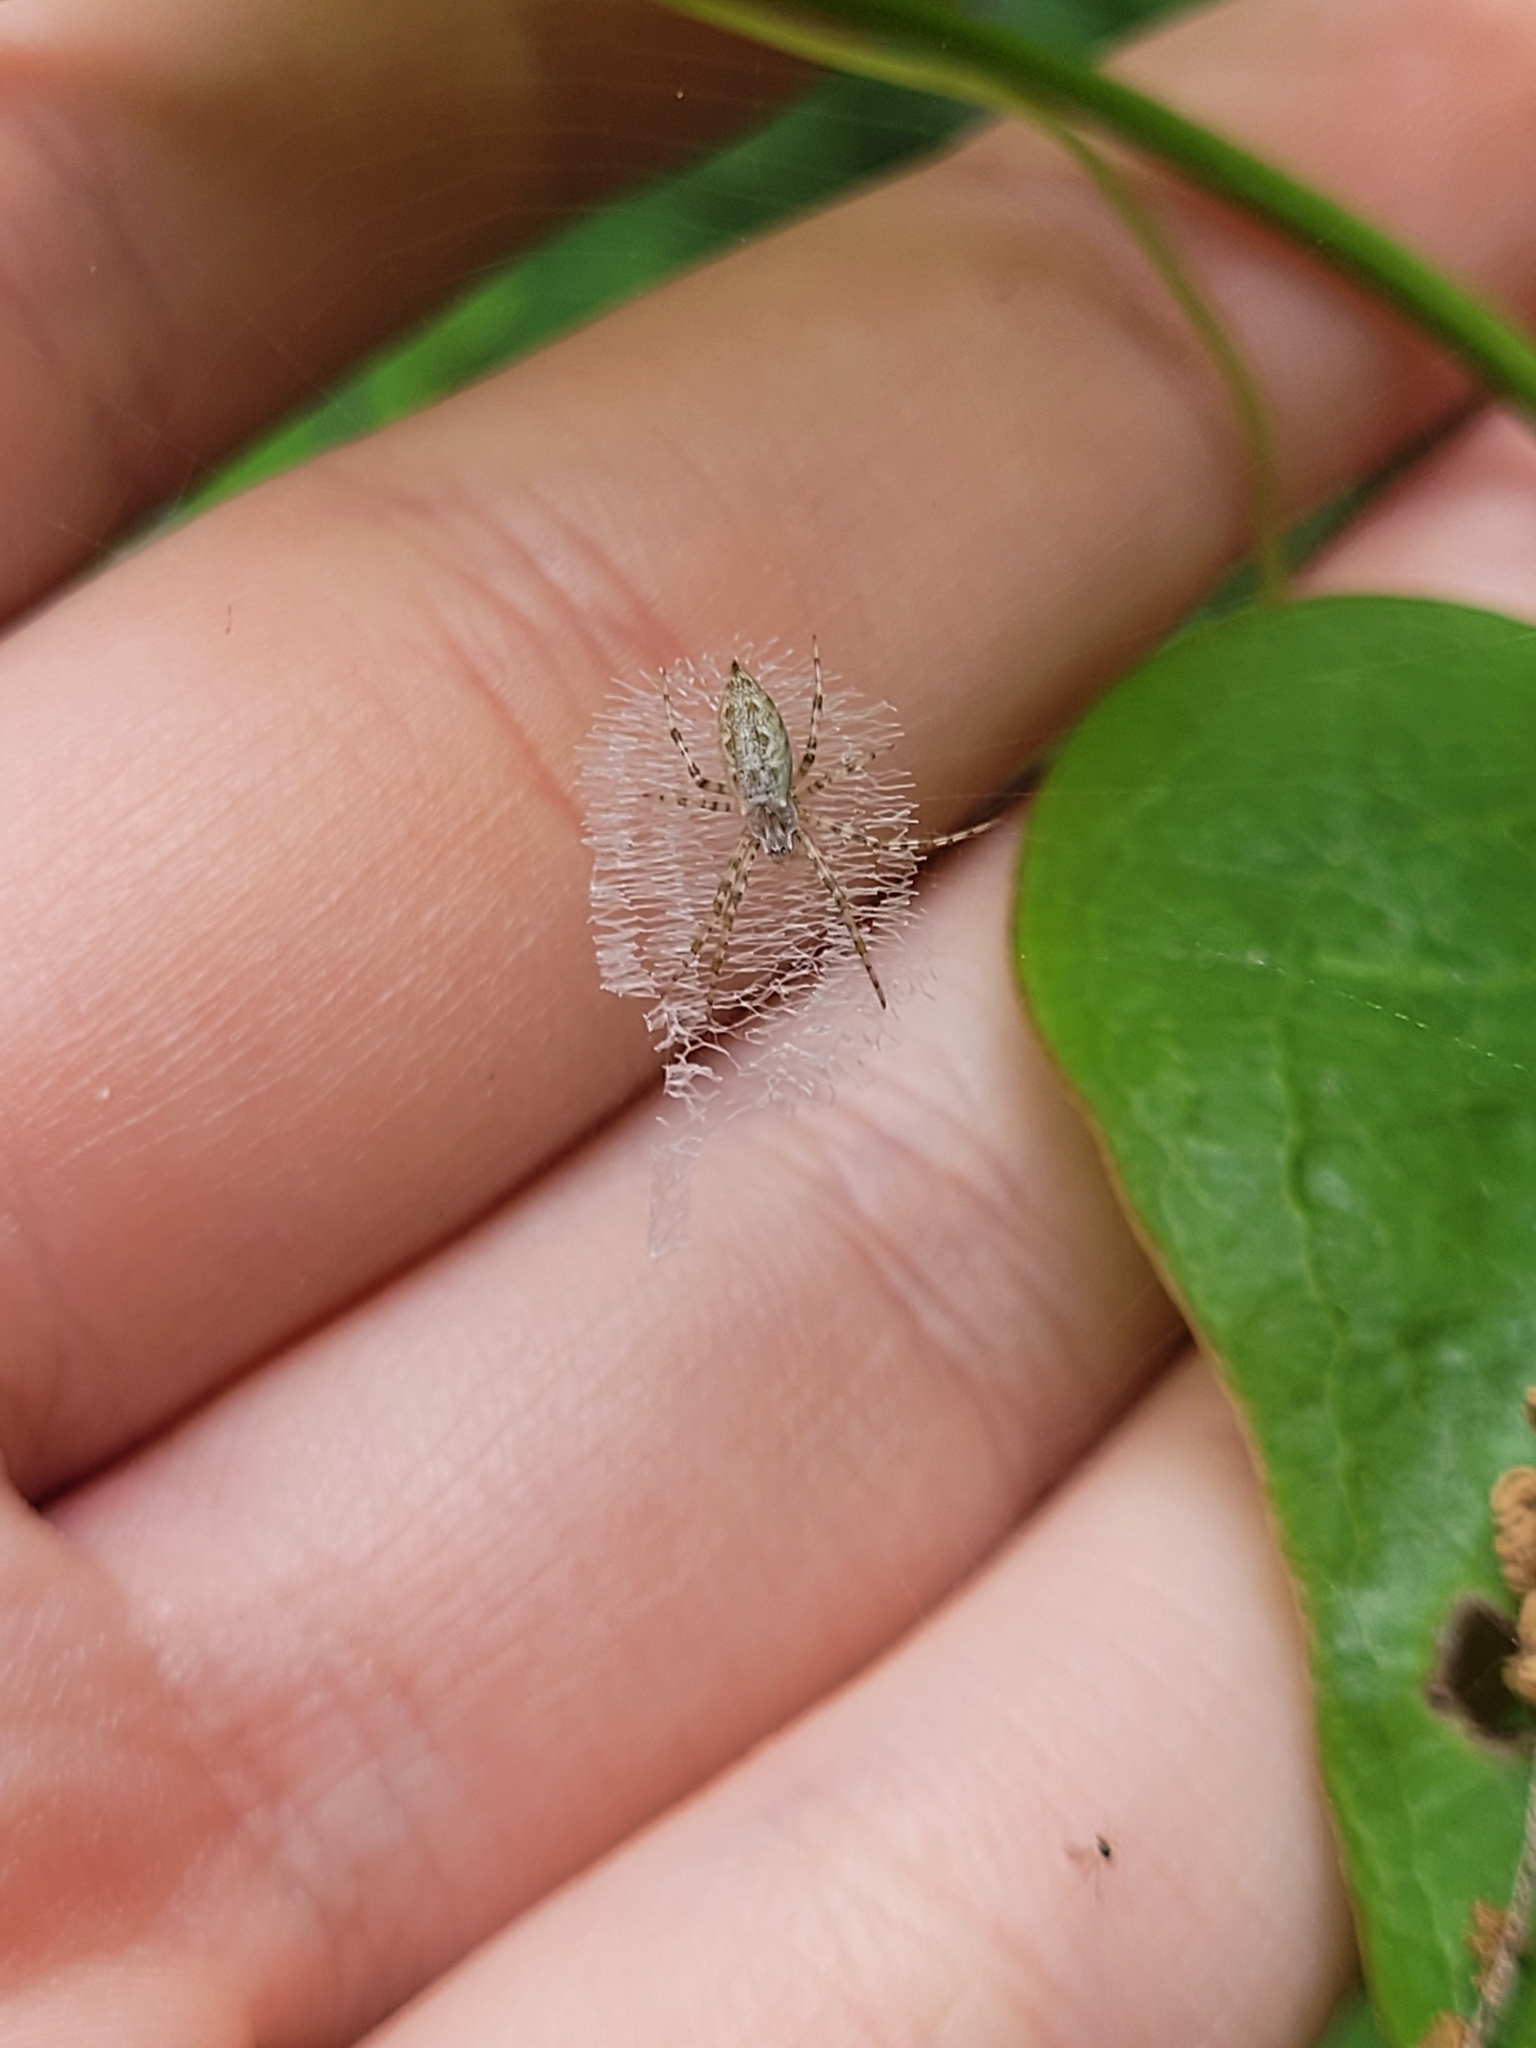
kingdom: Animalia
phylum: Arthropoda
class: Arachnida
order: Araneae
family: Araneidae
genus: Argiope
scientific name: Argiope aurantia
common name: Orb weavers
